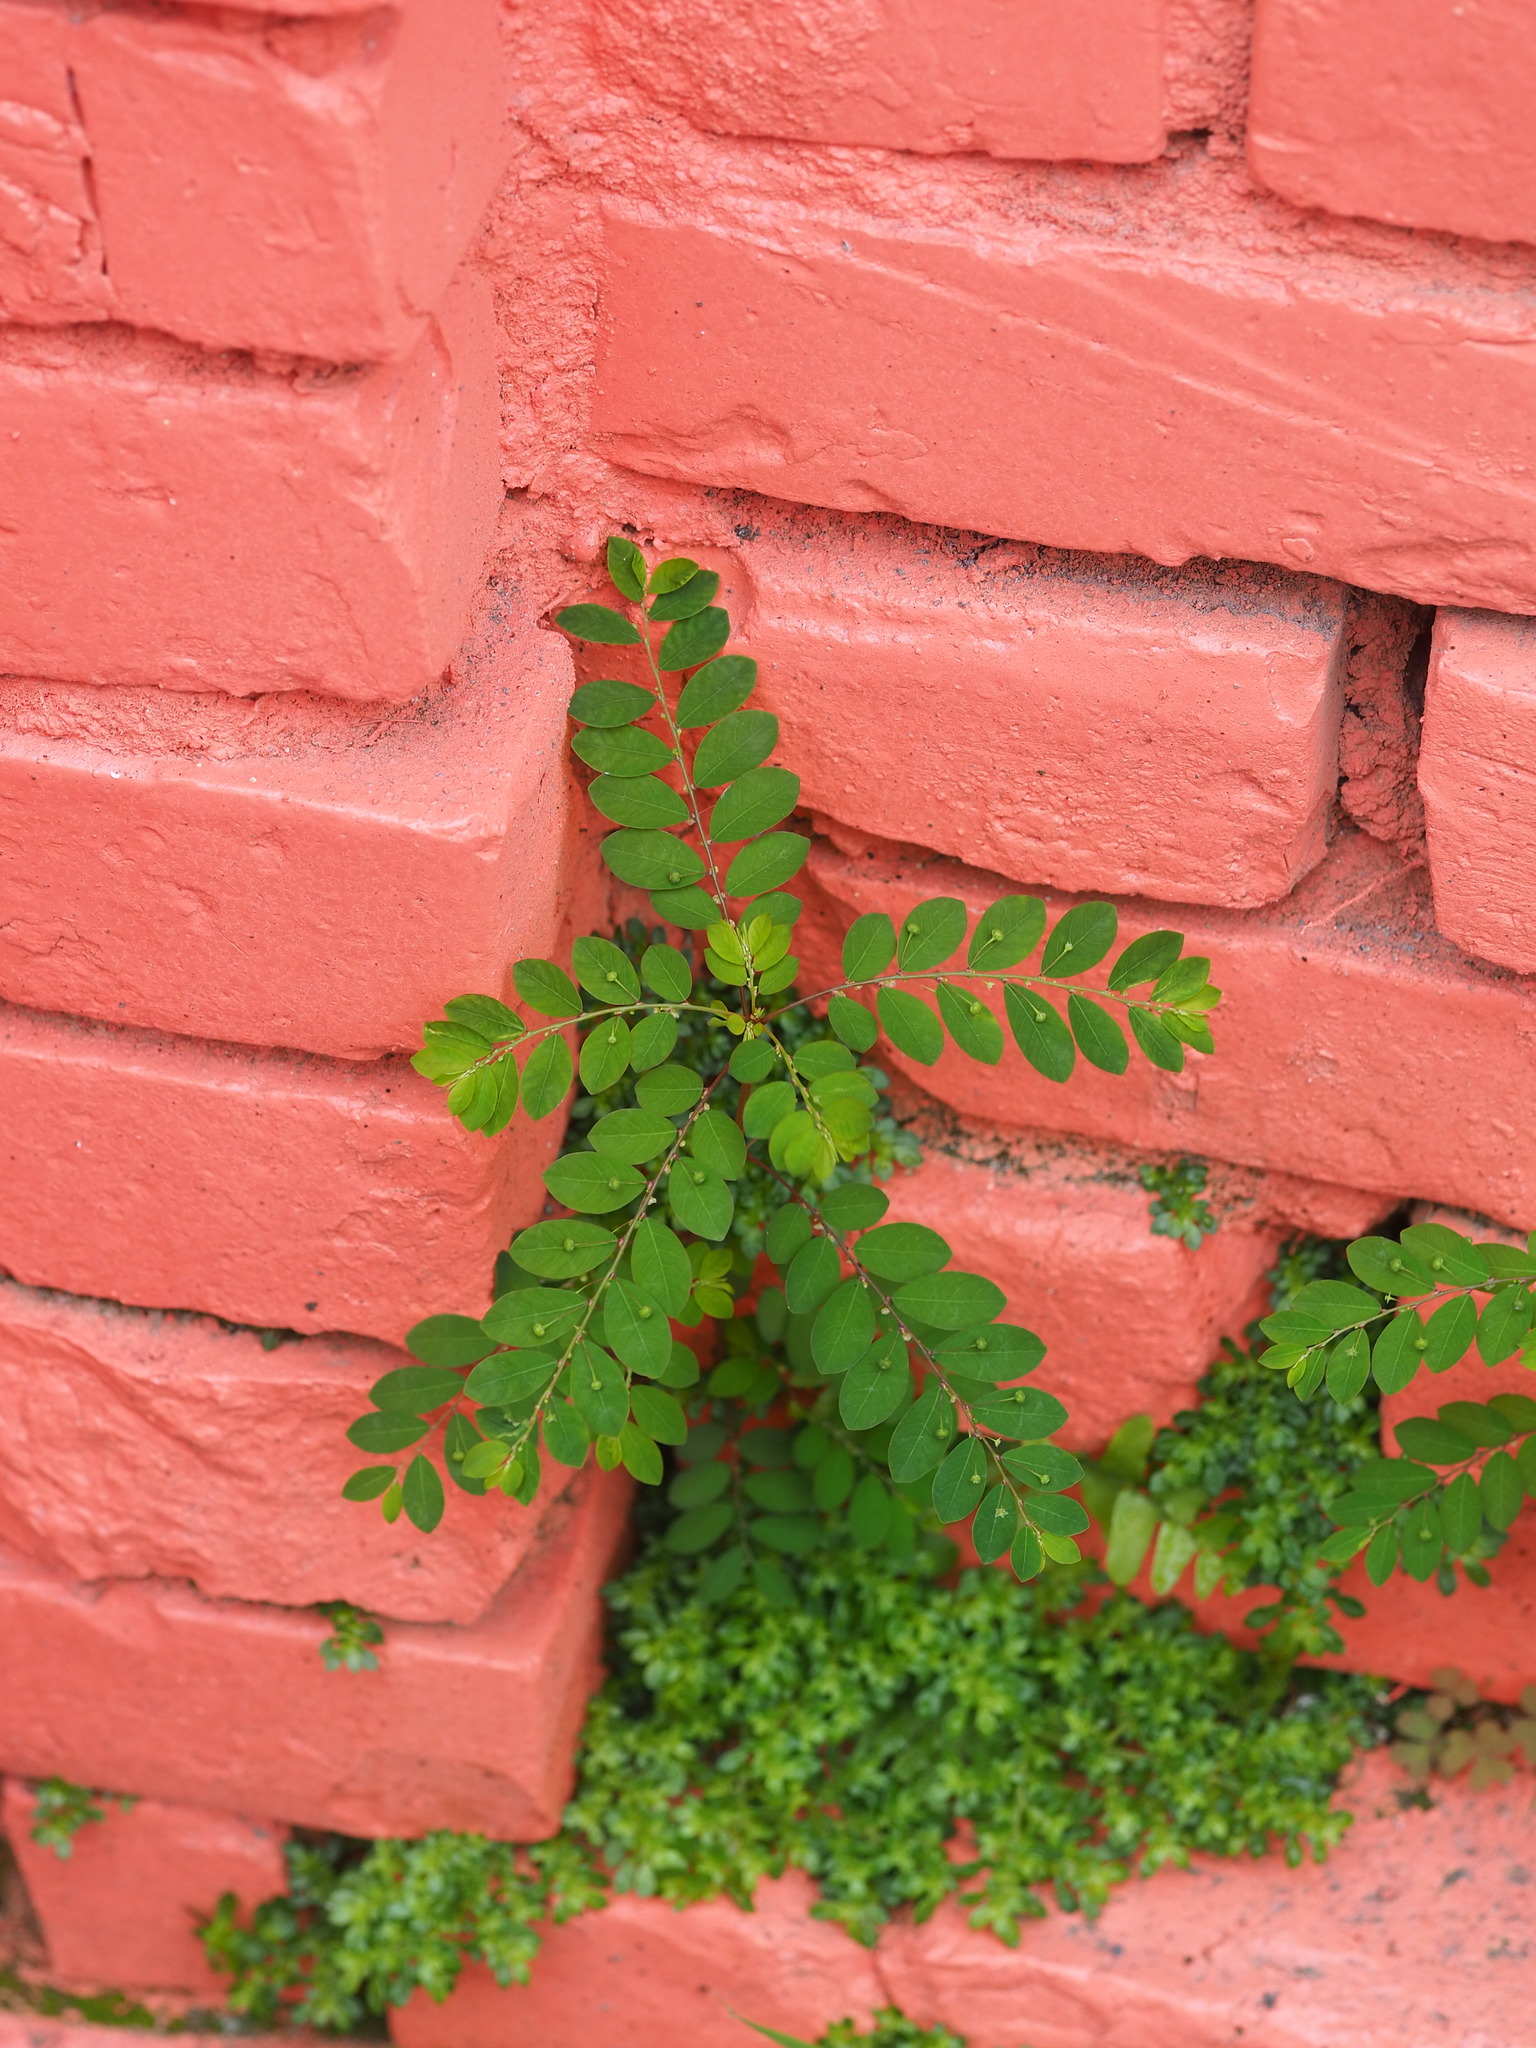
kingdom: Plantae
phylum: Tracheophyta
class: Magnoliopsida
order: Malpighiales
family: Phyllanthaceae
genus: Phyllanthus
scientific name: Phyllanthus tenellus
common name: Mascarene island leaf-flower
